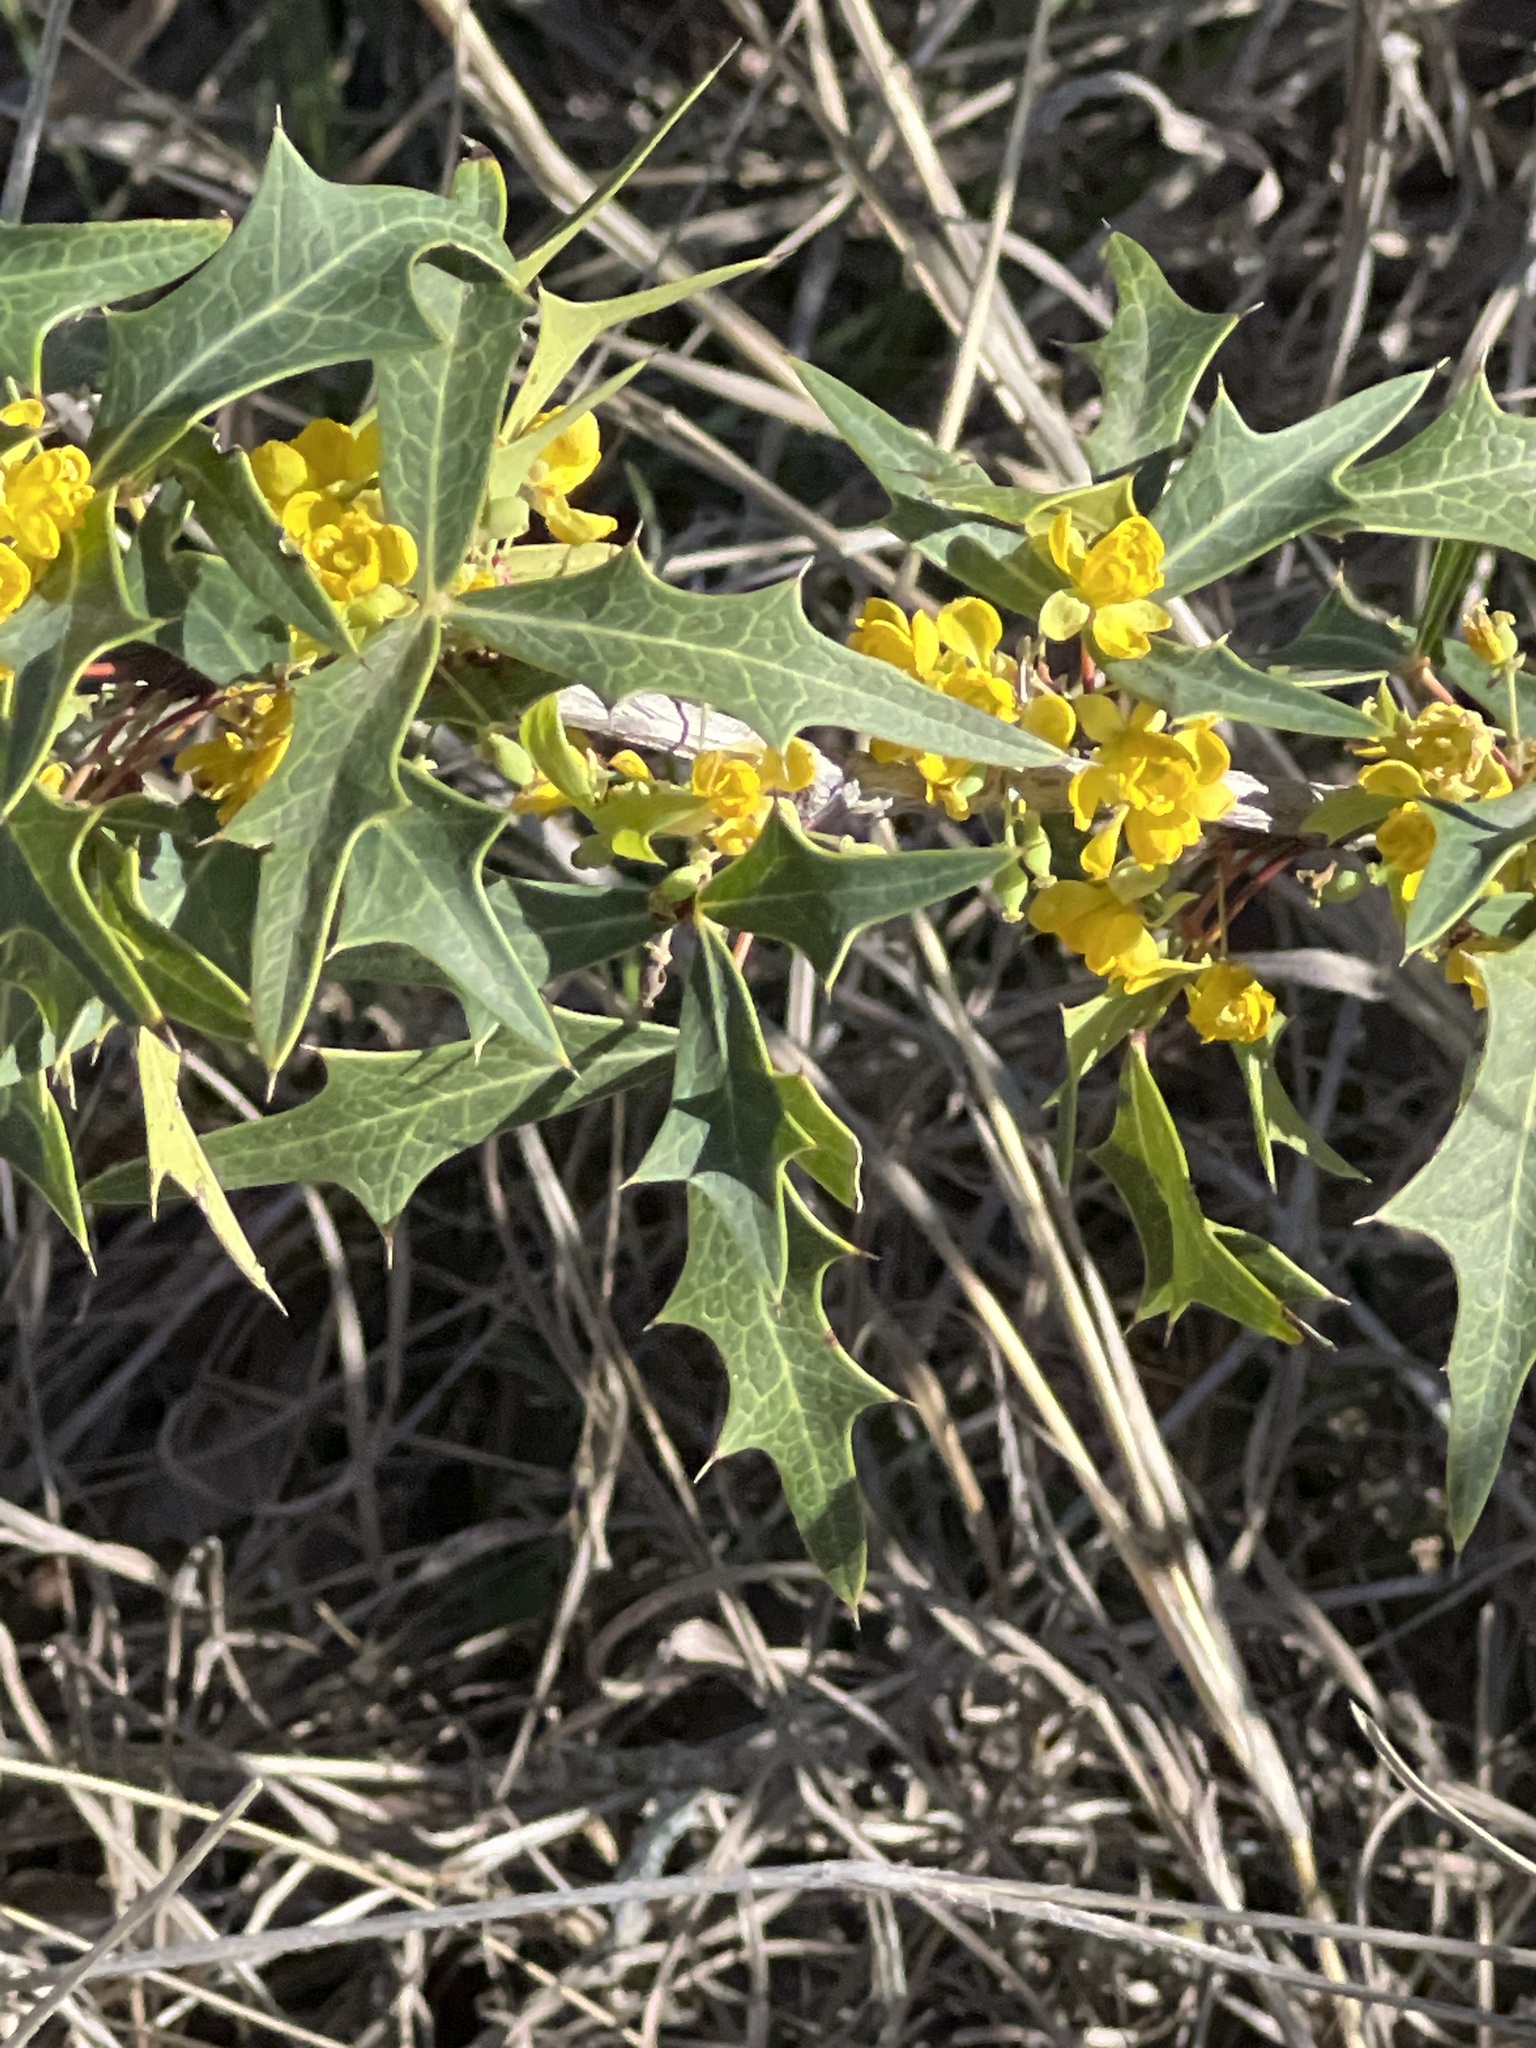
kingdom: Plantae
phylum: Tracheophyta
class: Magnoliopsida
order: Ranunculales
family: Berberidaceae
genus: Alloberberis
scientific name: Alloberberis trifoliolata
